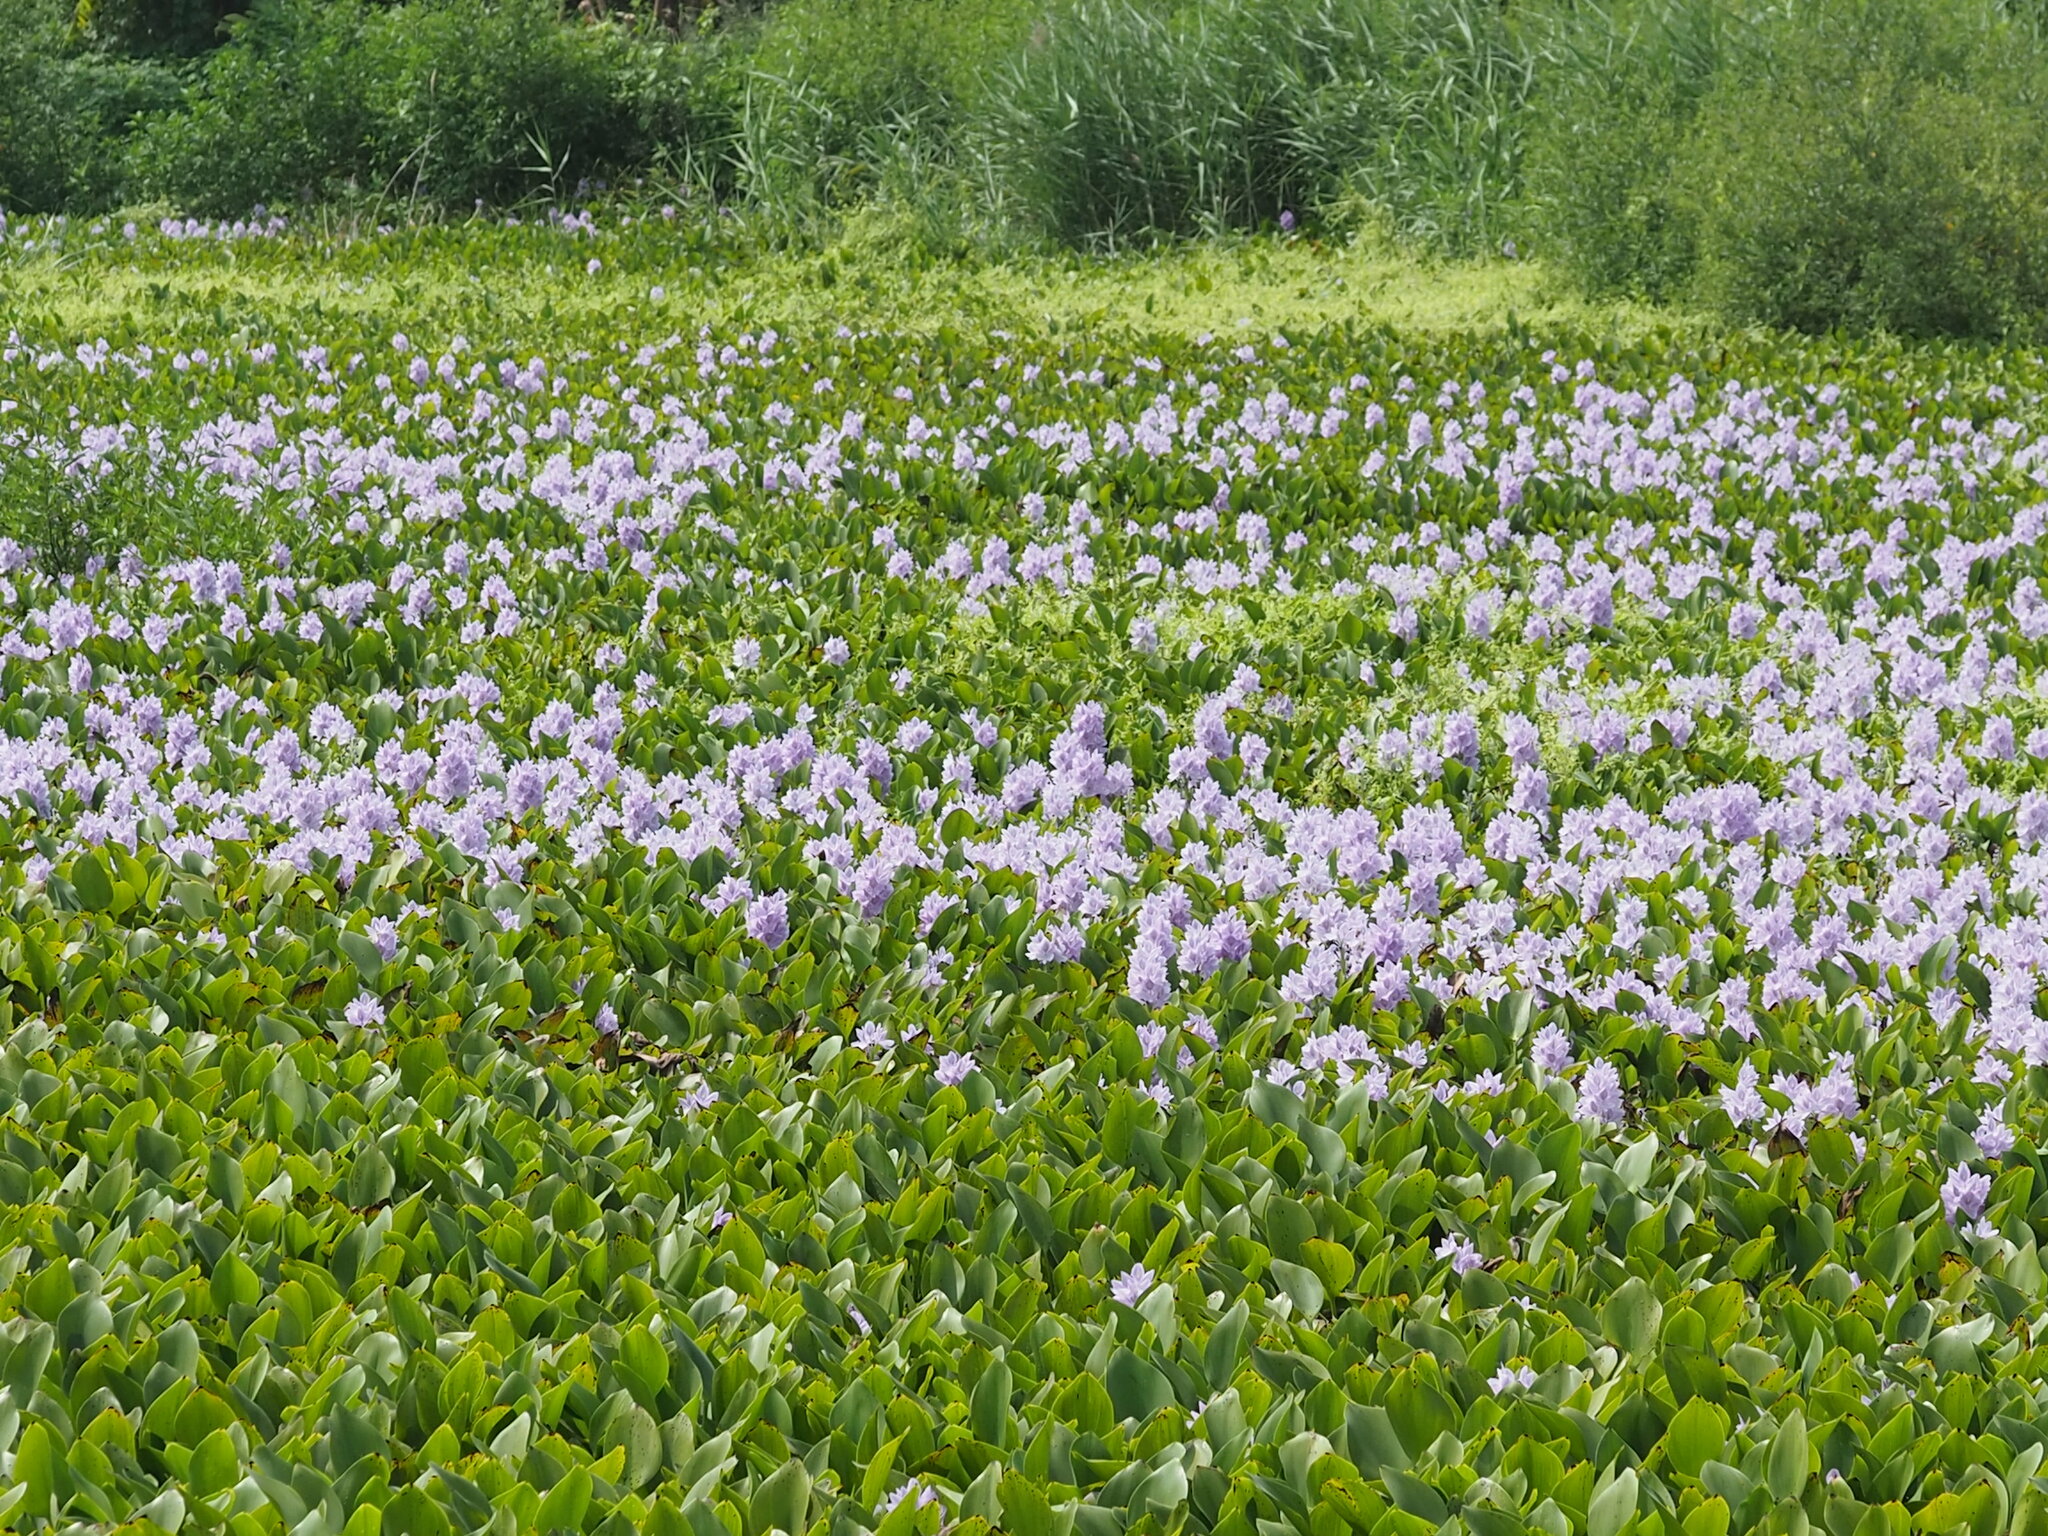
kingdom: Plantae
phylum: Tracheophyta
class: Liliopsida
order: Commelinales
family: Pontederiaceae
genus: Pontederia
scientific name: Pontederia crassipes
